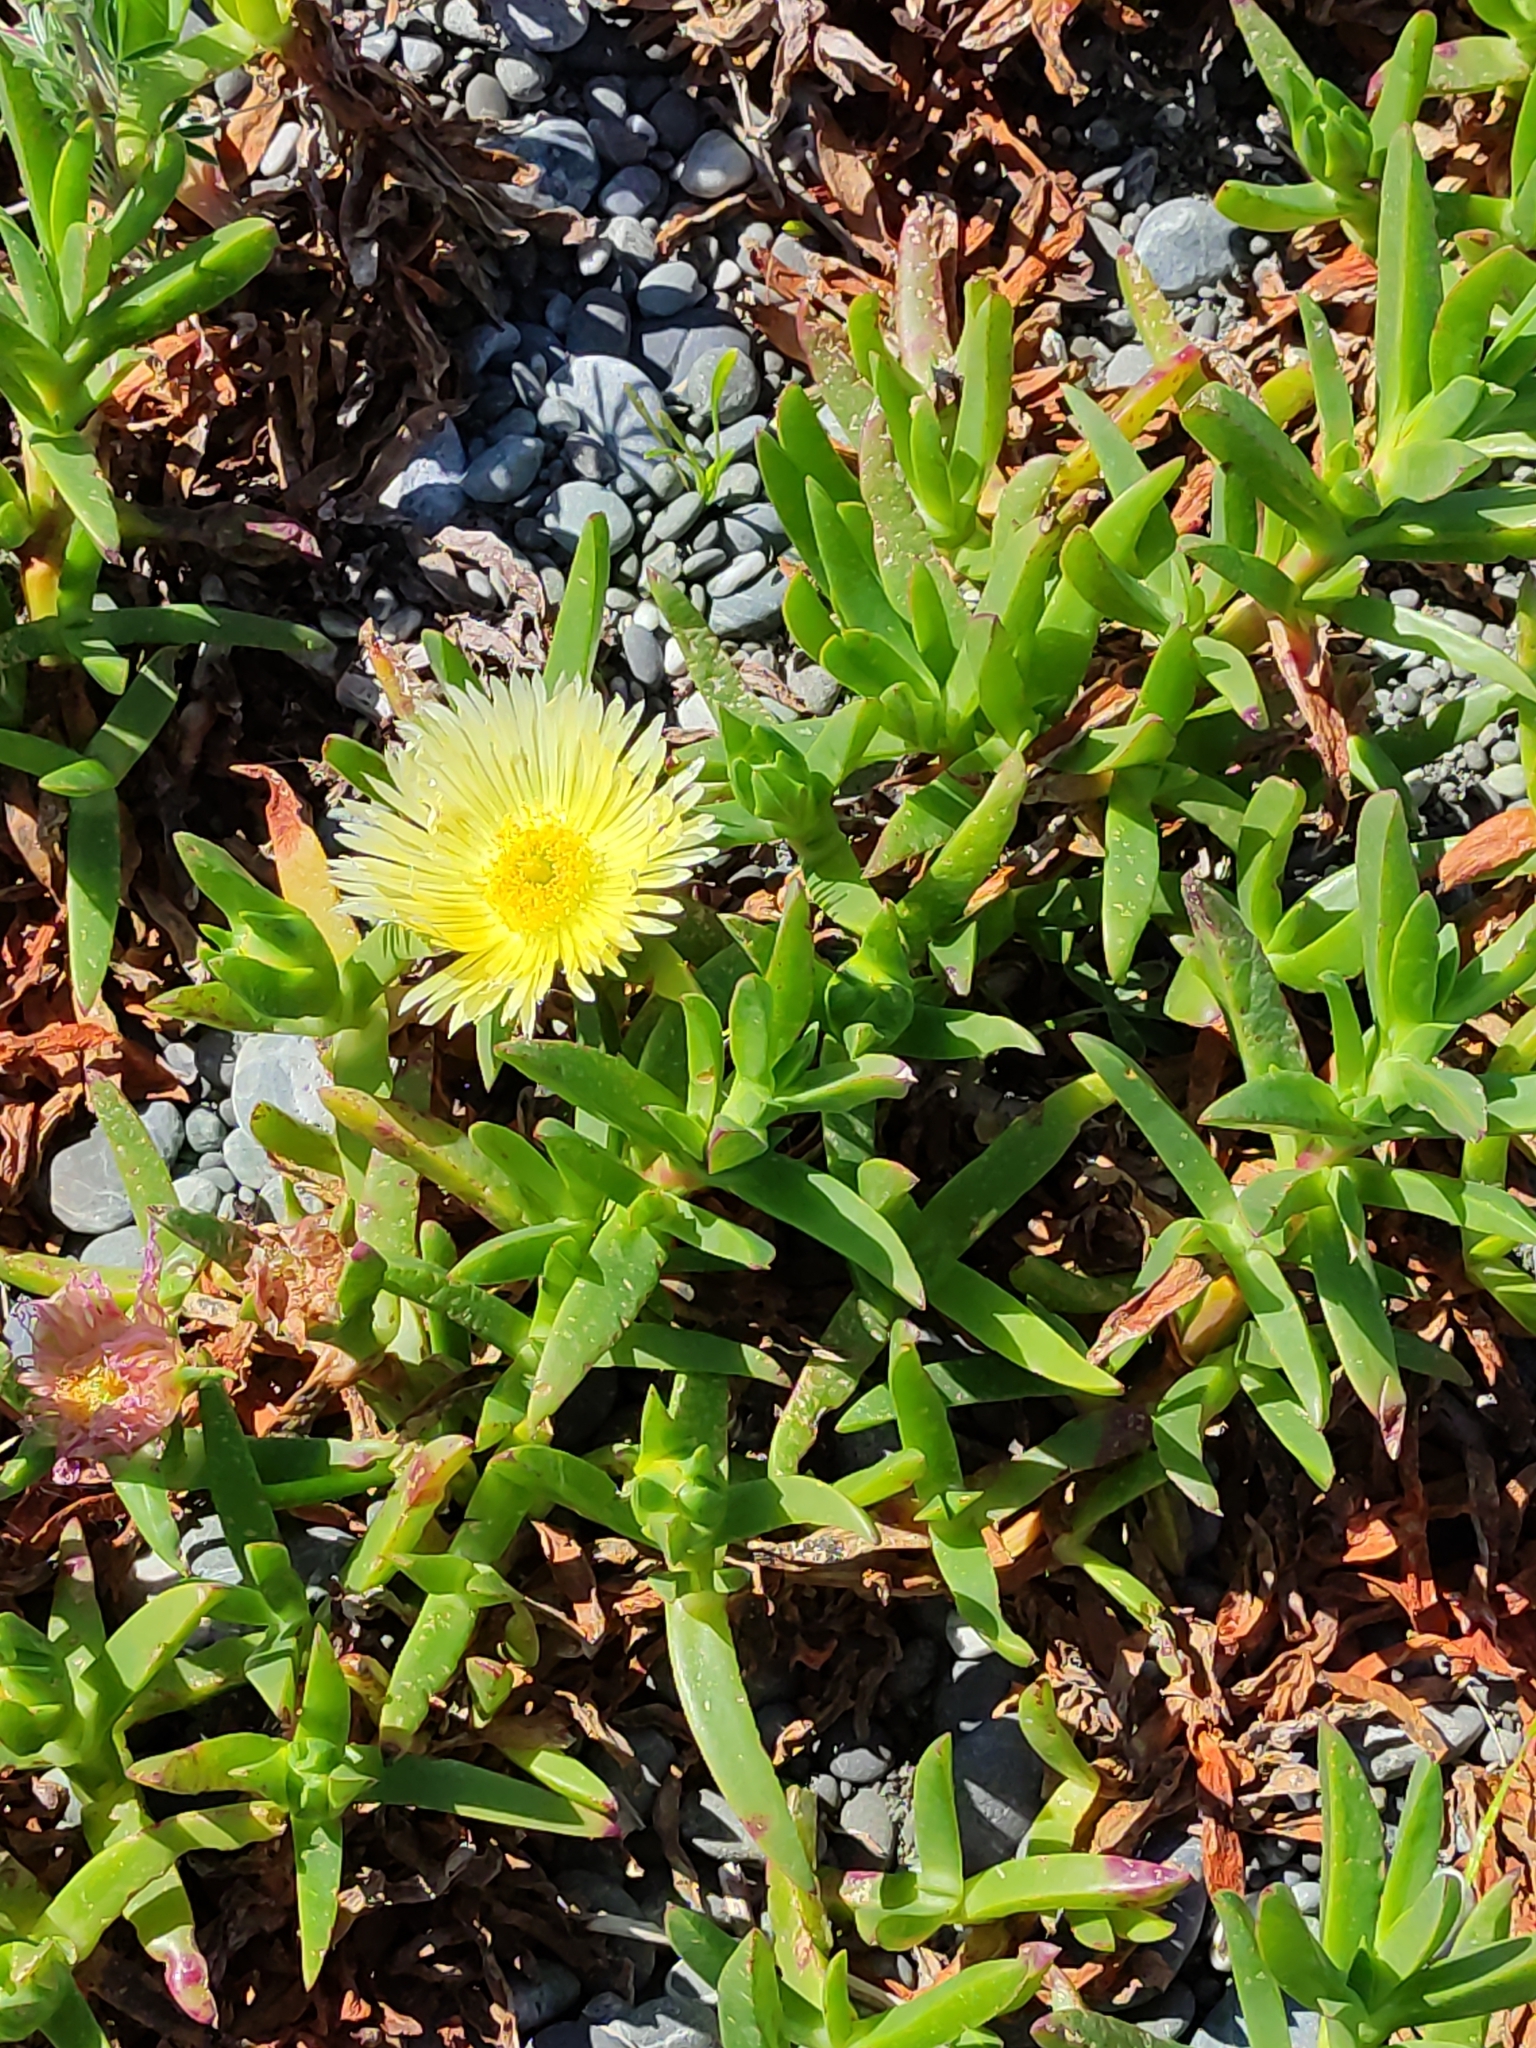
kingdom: Plantae
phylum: Tracheophyta
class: Magnoliopsida
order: Caryophyllales
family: Aizoaceae
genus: Carpobrotus
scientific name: Carpobrotus edulis
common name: Hottentot-fig
